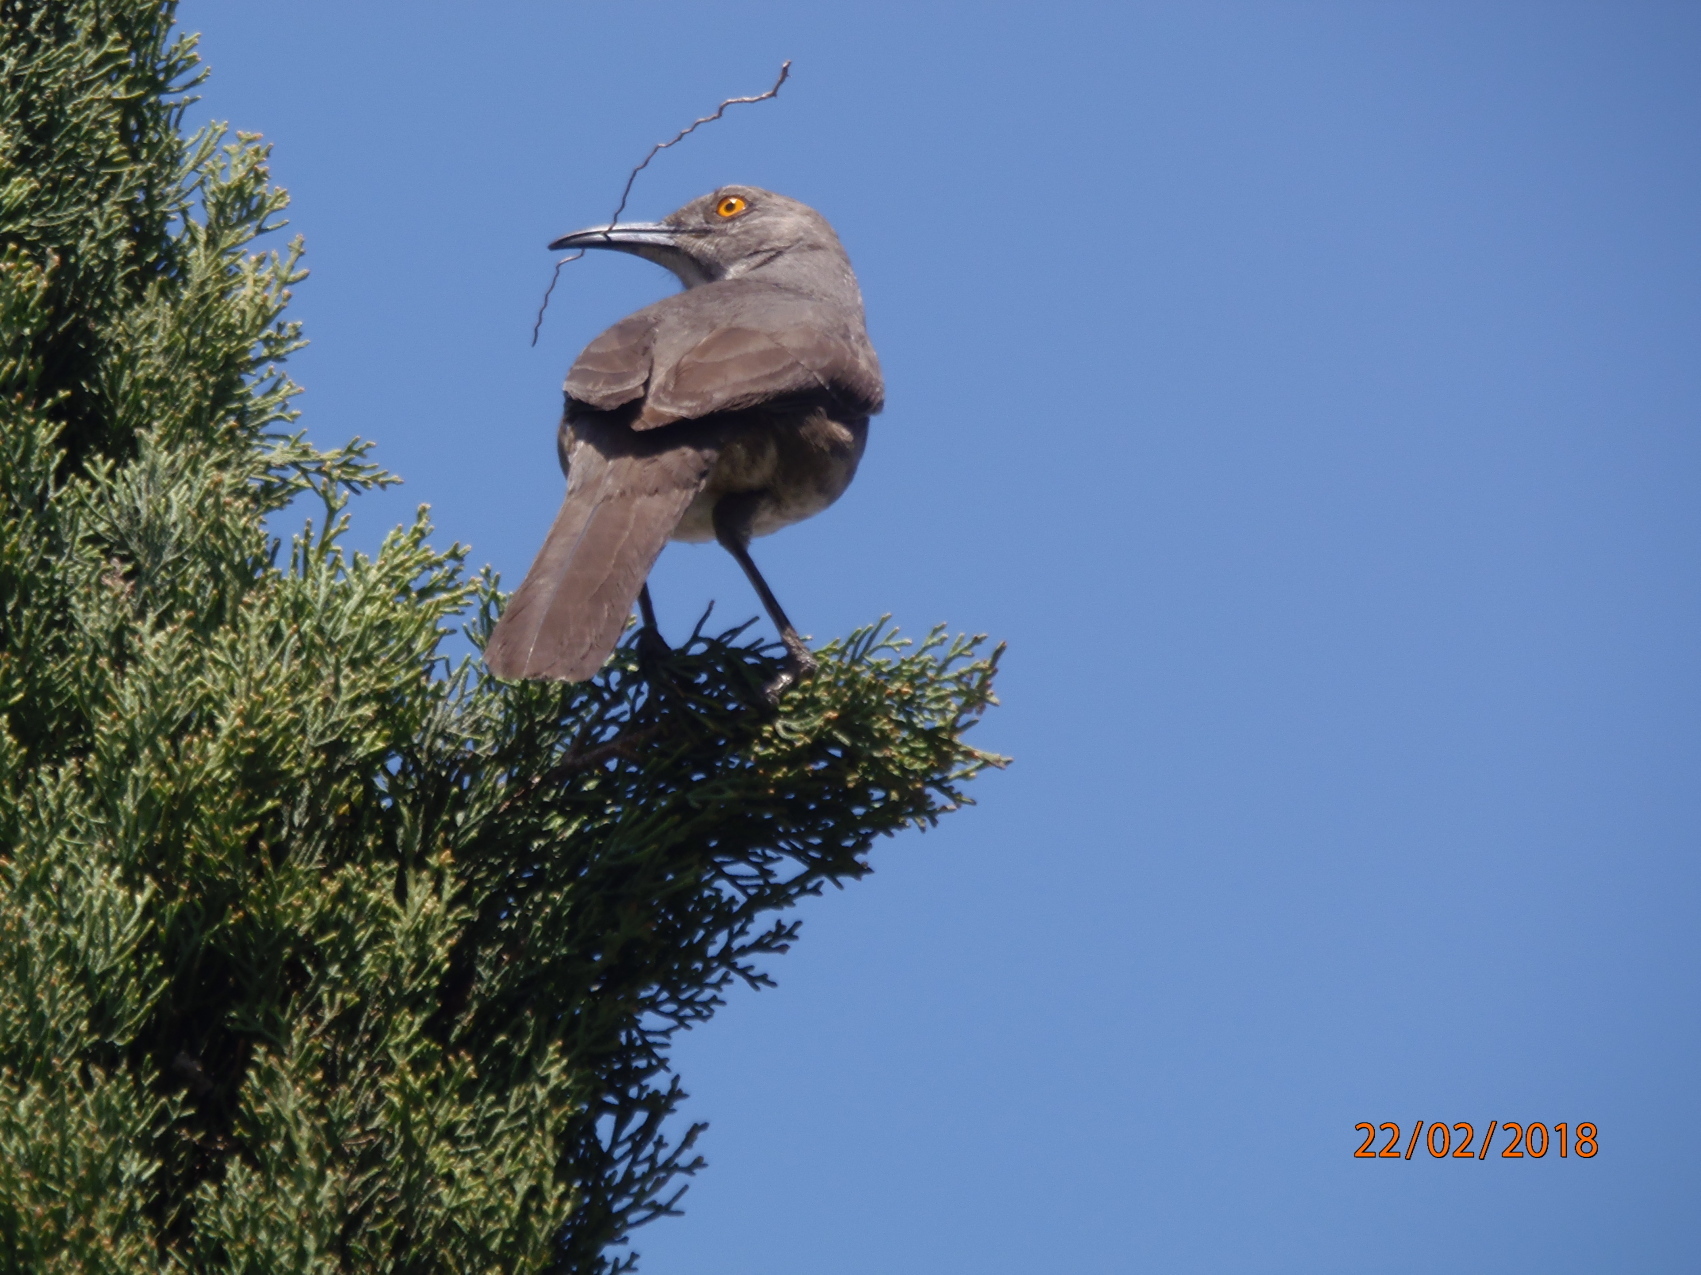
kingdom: Animalia
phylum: Chordata
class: Aves
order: Passeriformes
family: Mimidae
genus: Toxostoma
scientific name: Toxostoma curvirostre
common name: Curve-billed thrasher
